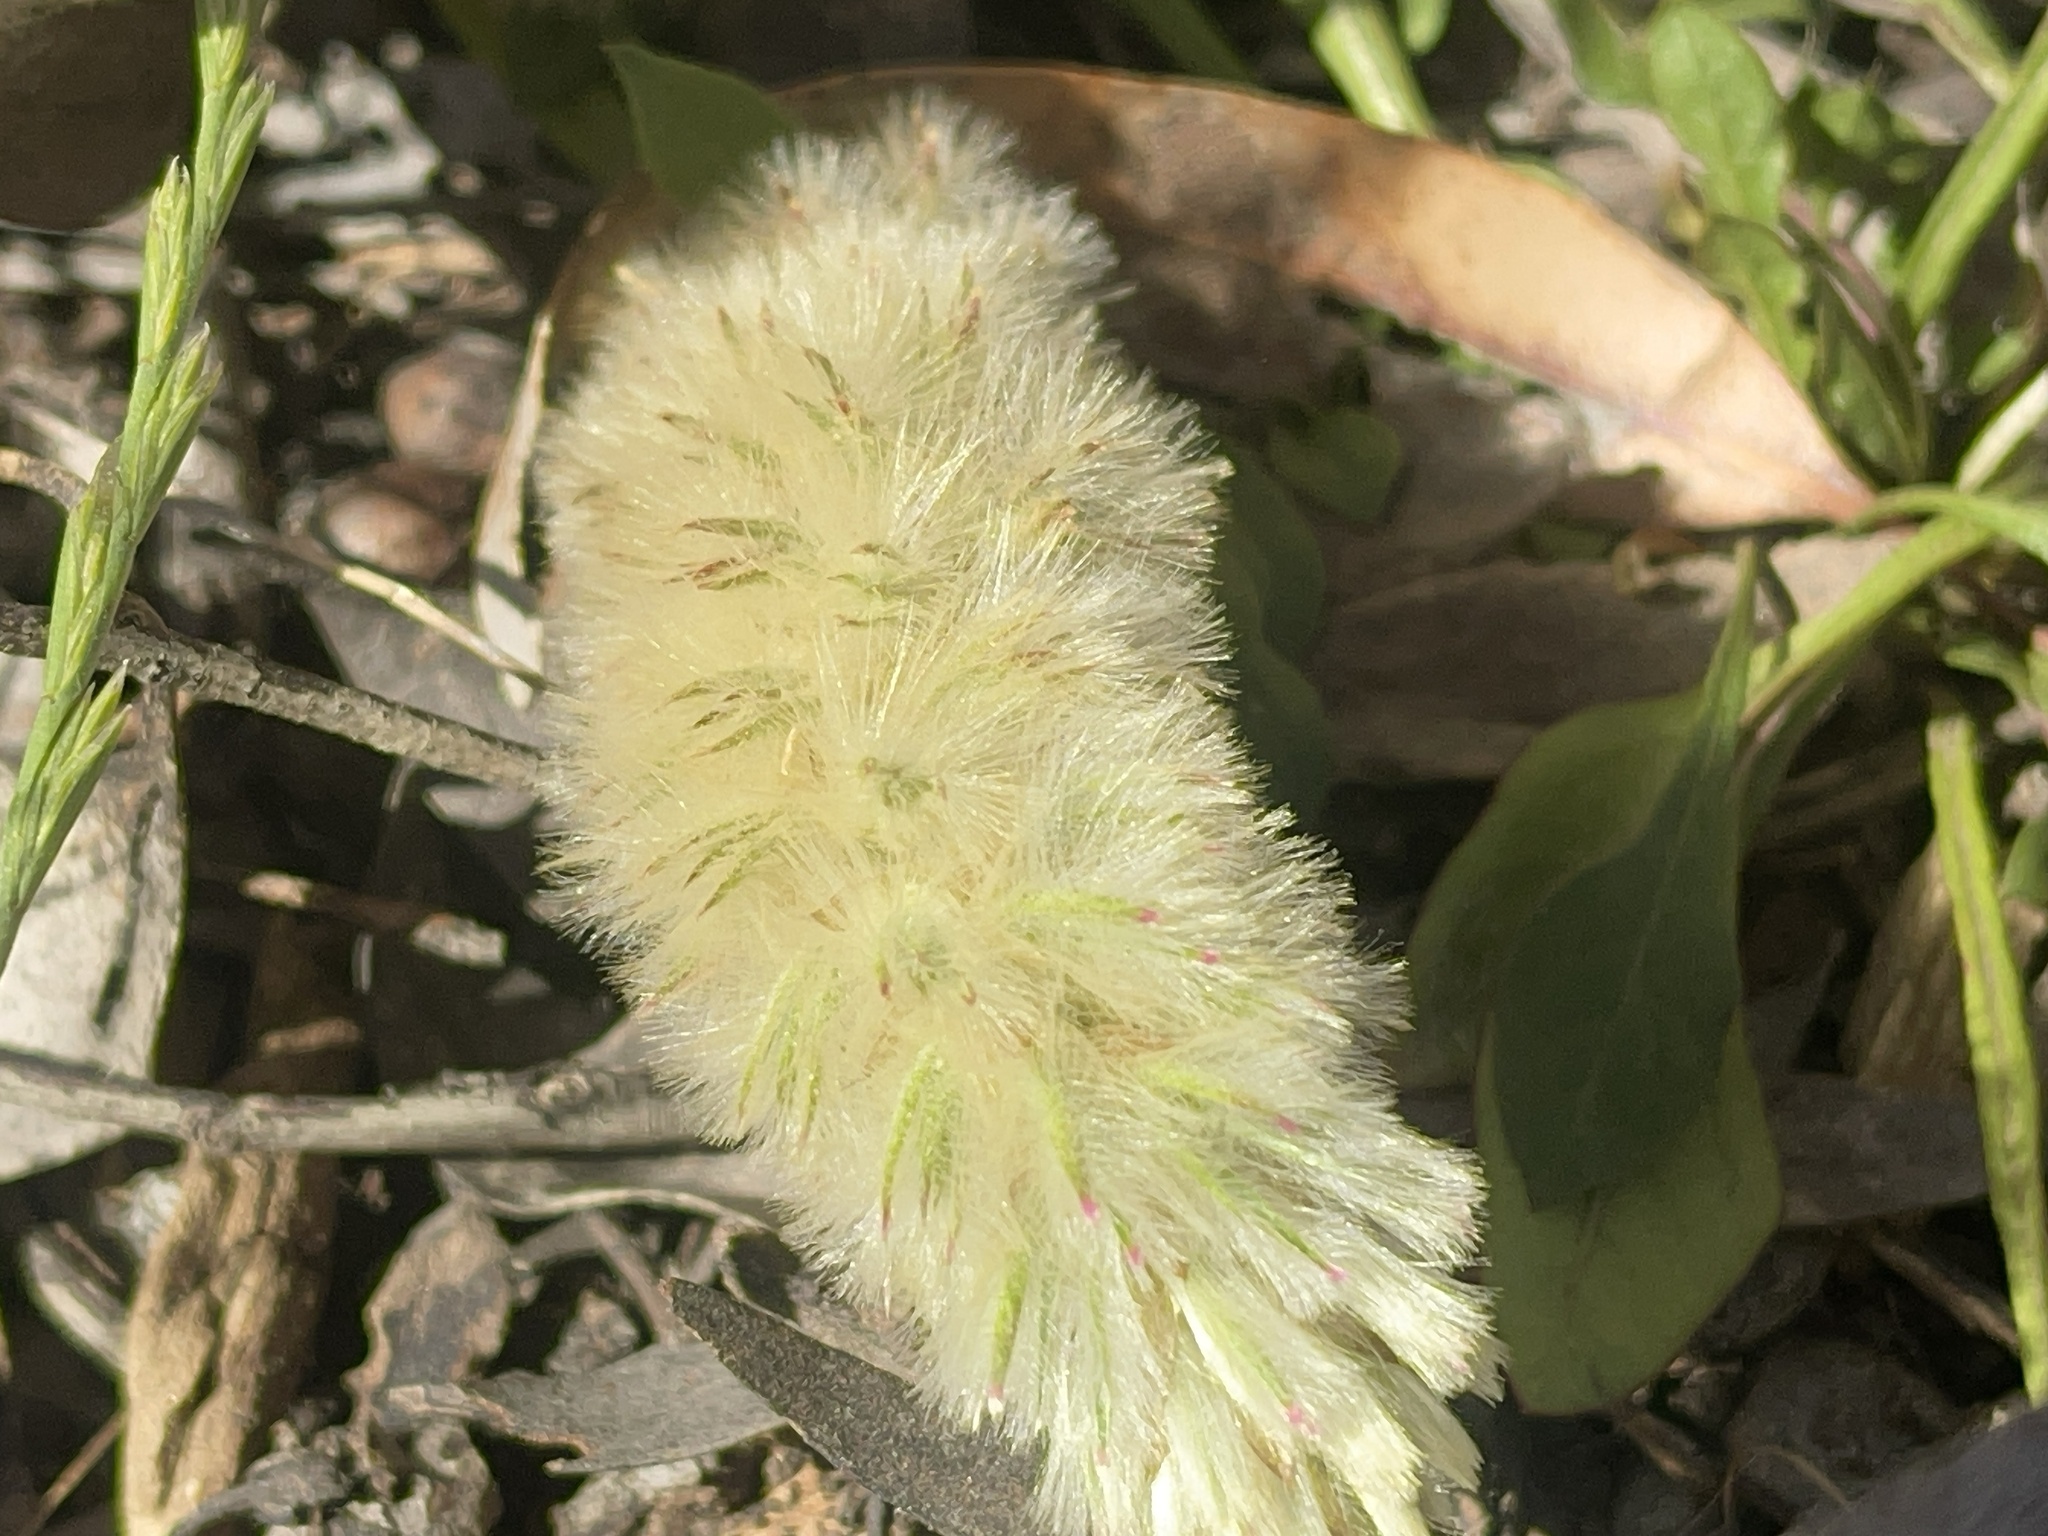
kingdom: Plantae
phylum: Tracheophyta
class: Magnoliopsida
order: Caryophyllales
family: Amaranthaceae
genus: Ptilotus
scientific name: Ptilotus spathulatus
